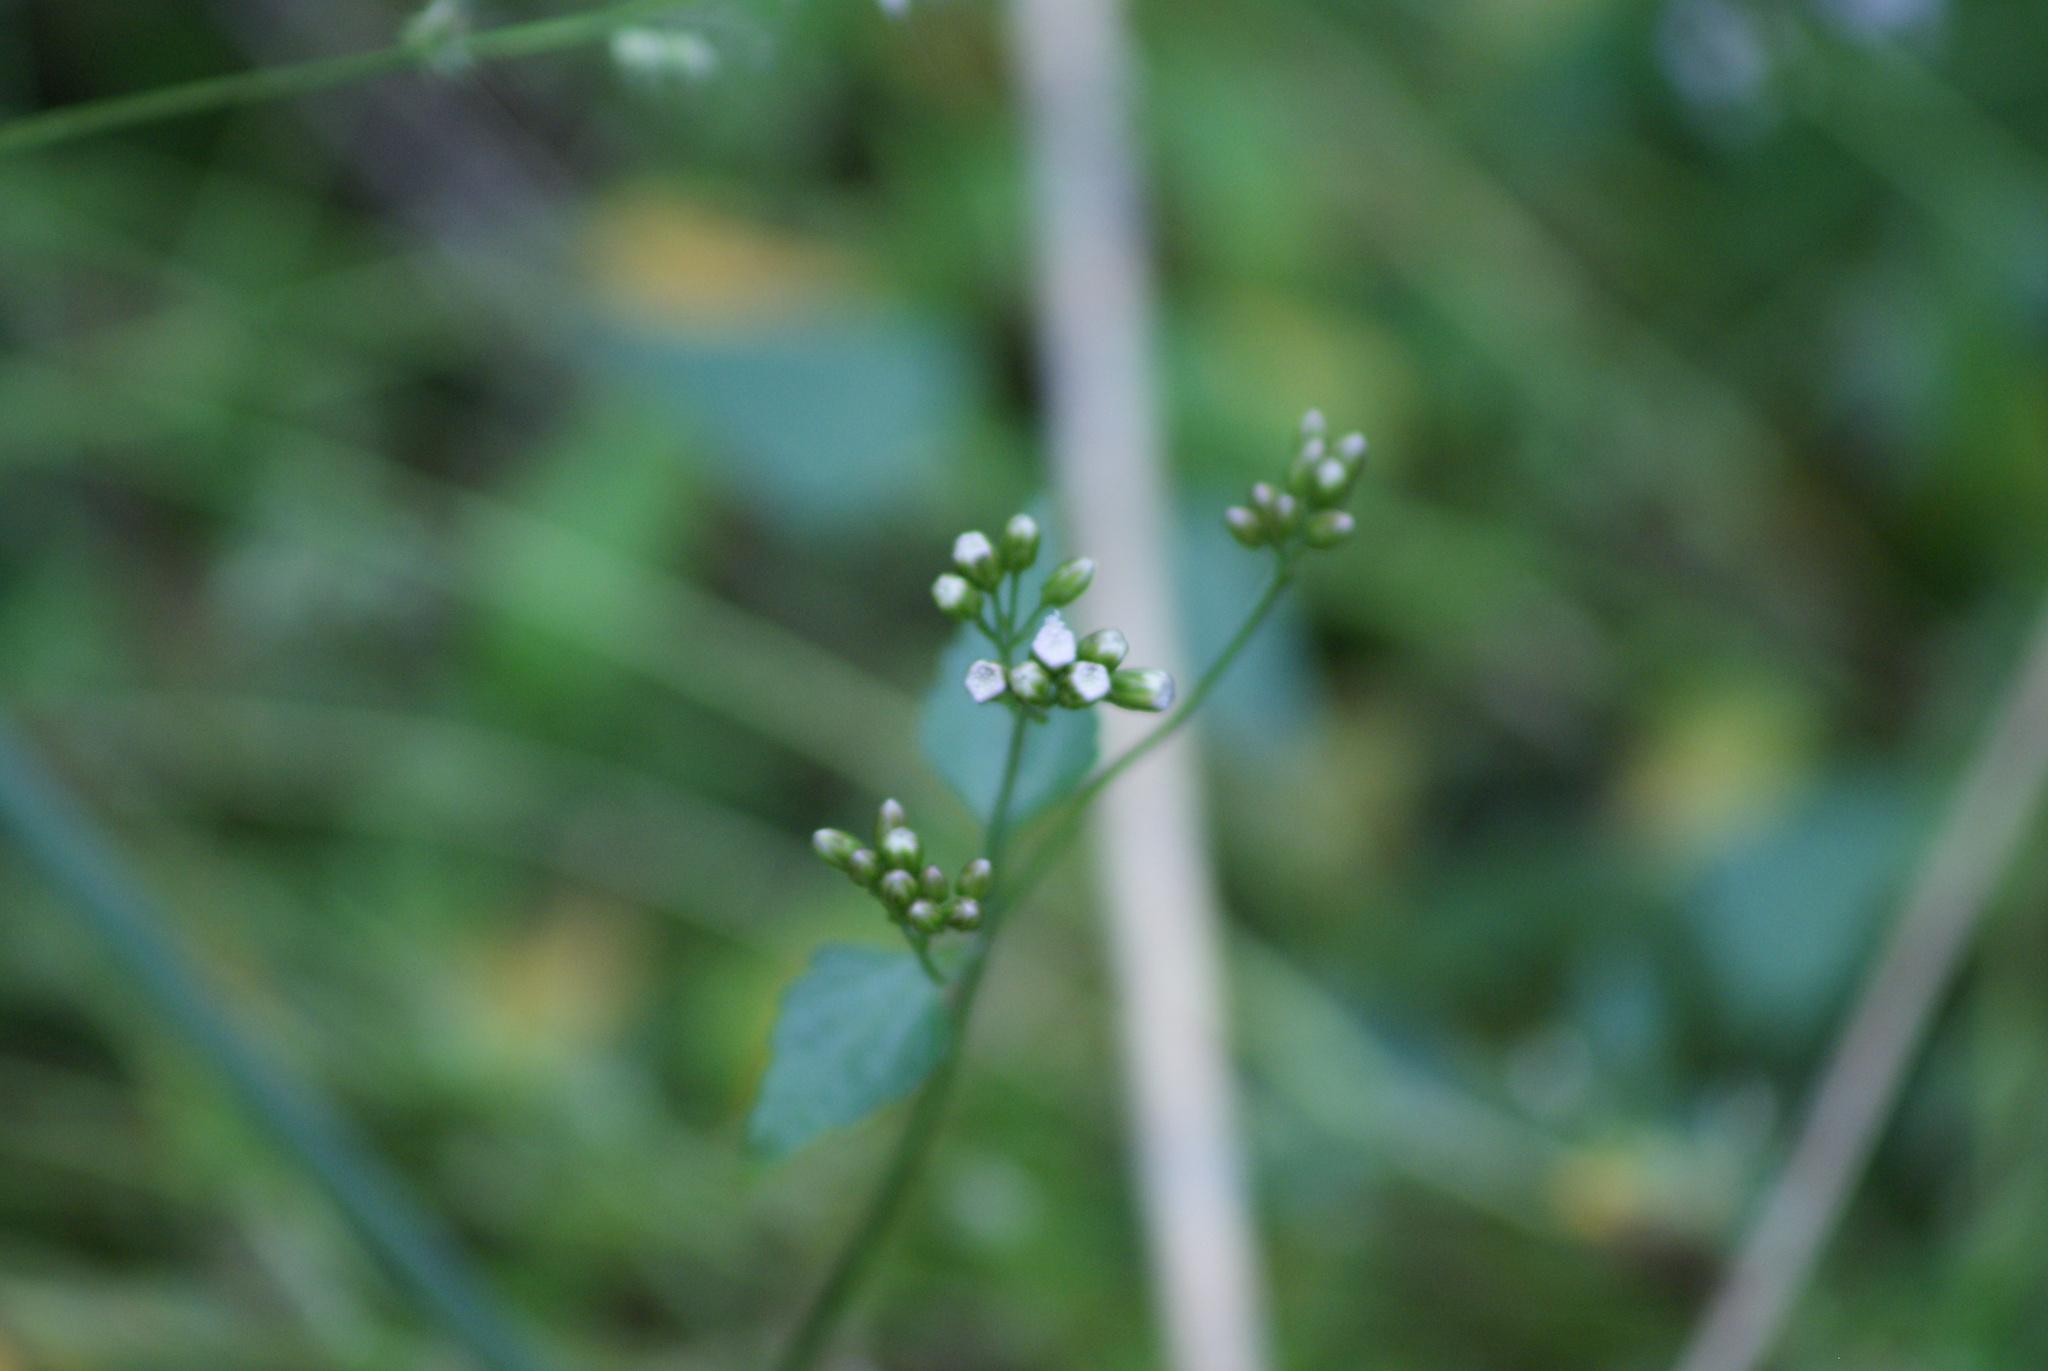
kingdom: Plantae
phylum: Tracheophyta
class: Magnoliopsida
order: Asterales
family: Asteraceae
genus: Fleischmannia
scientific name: Fleischmannia pycnocephala
